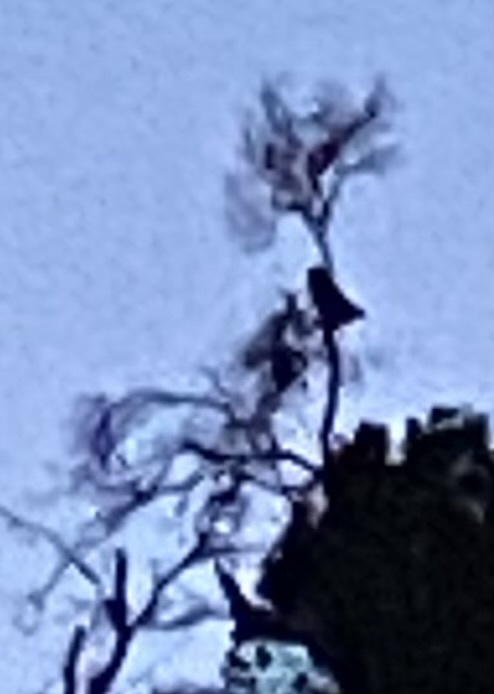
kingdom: Animalia
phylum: Chordata
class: Aves
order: Strigiformes
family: Strigidae
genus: Bubo
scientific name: Bubo virginianus
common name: Great horned owl
